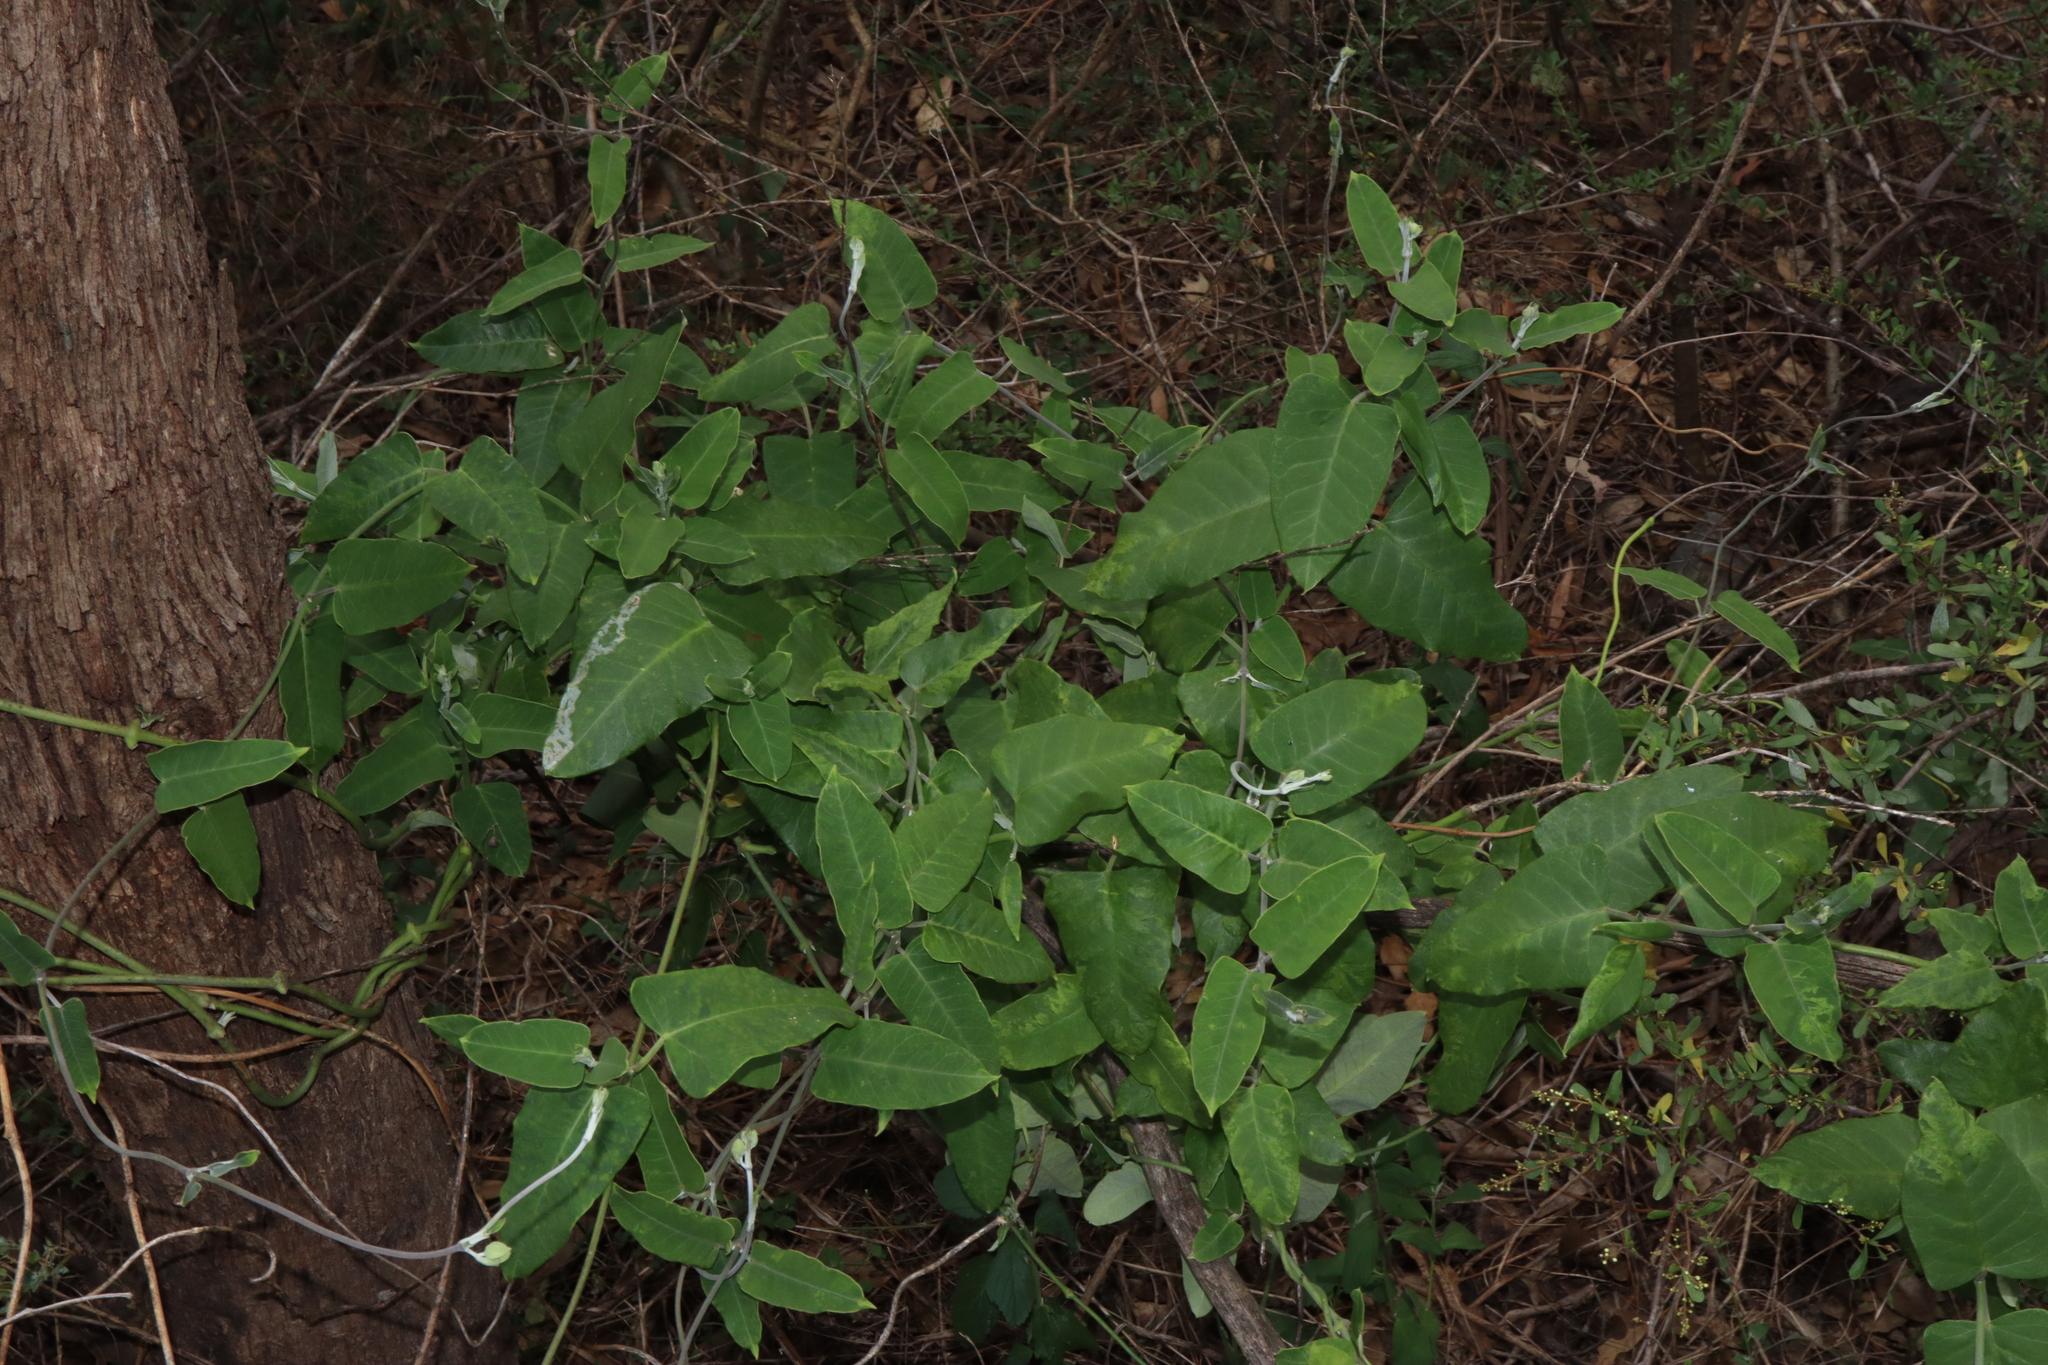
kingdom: Plantae
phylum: Tracheophyta
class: Magnoliopsida
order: Gentianales
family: Apocynaceae
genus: Araujia
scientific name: Araujia sericifera
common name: White bladderflower
